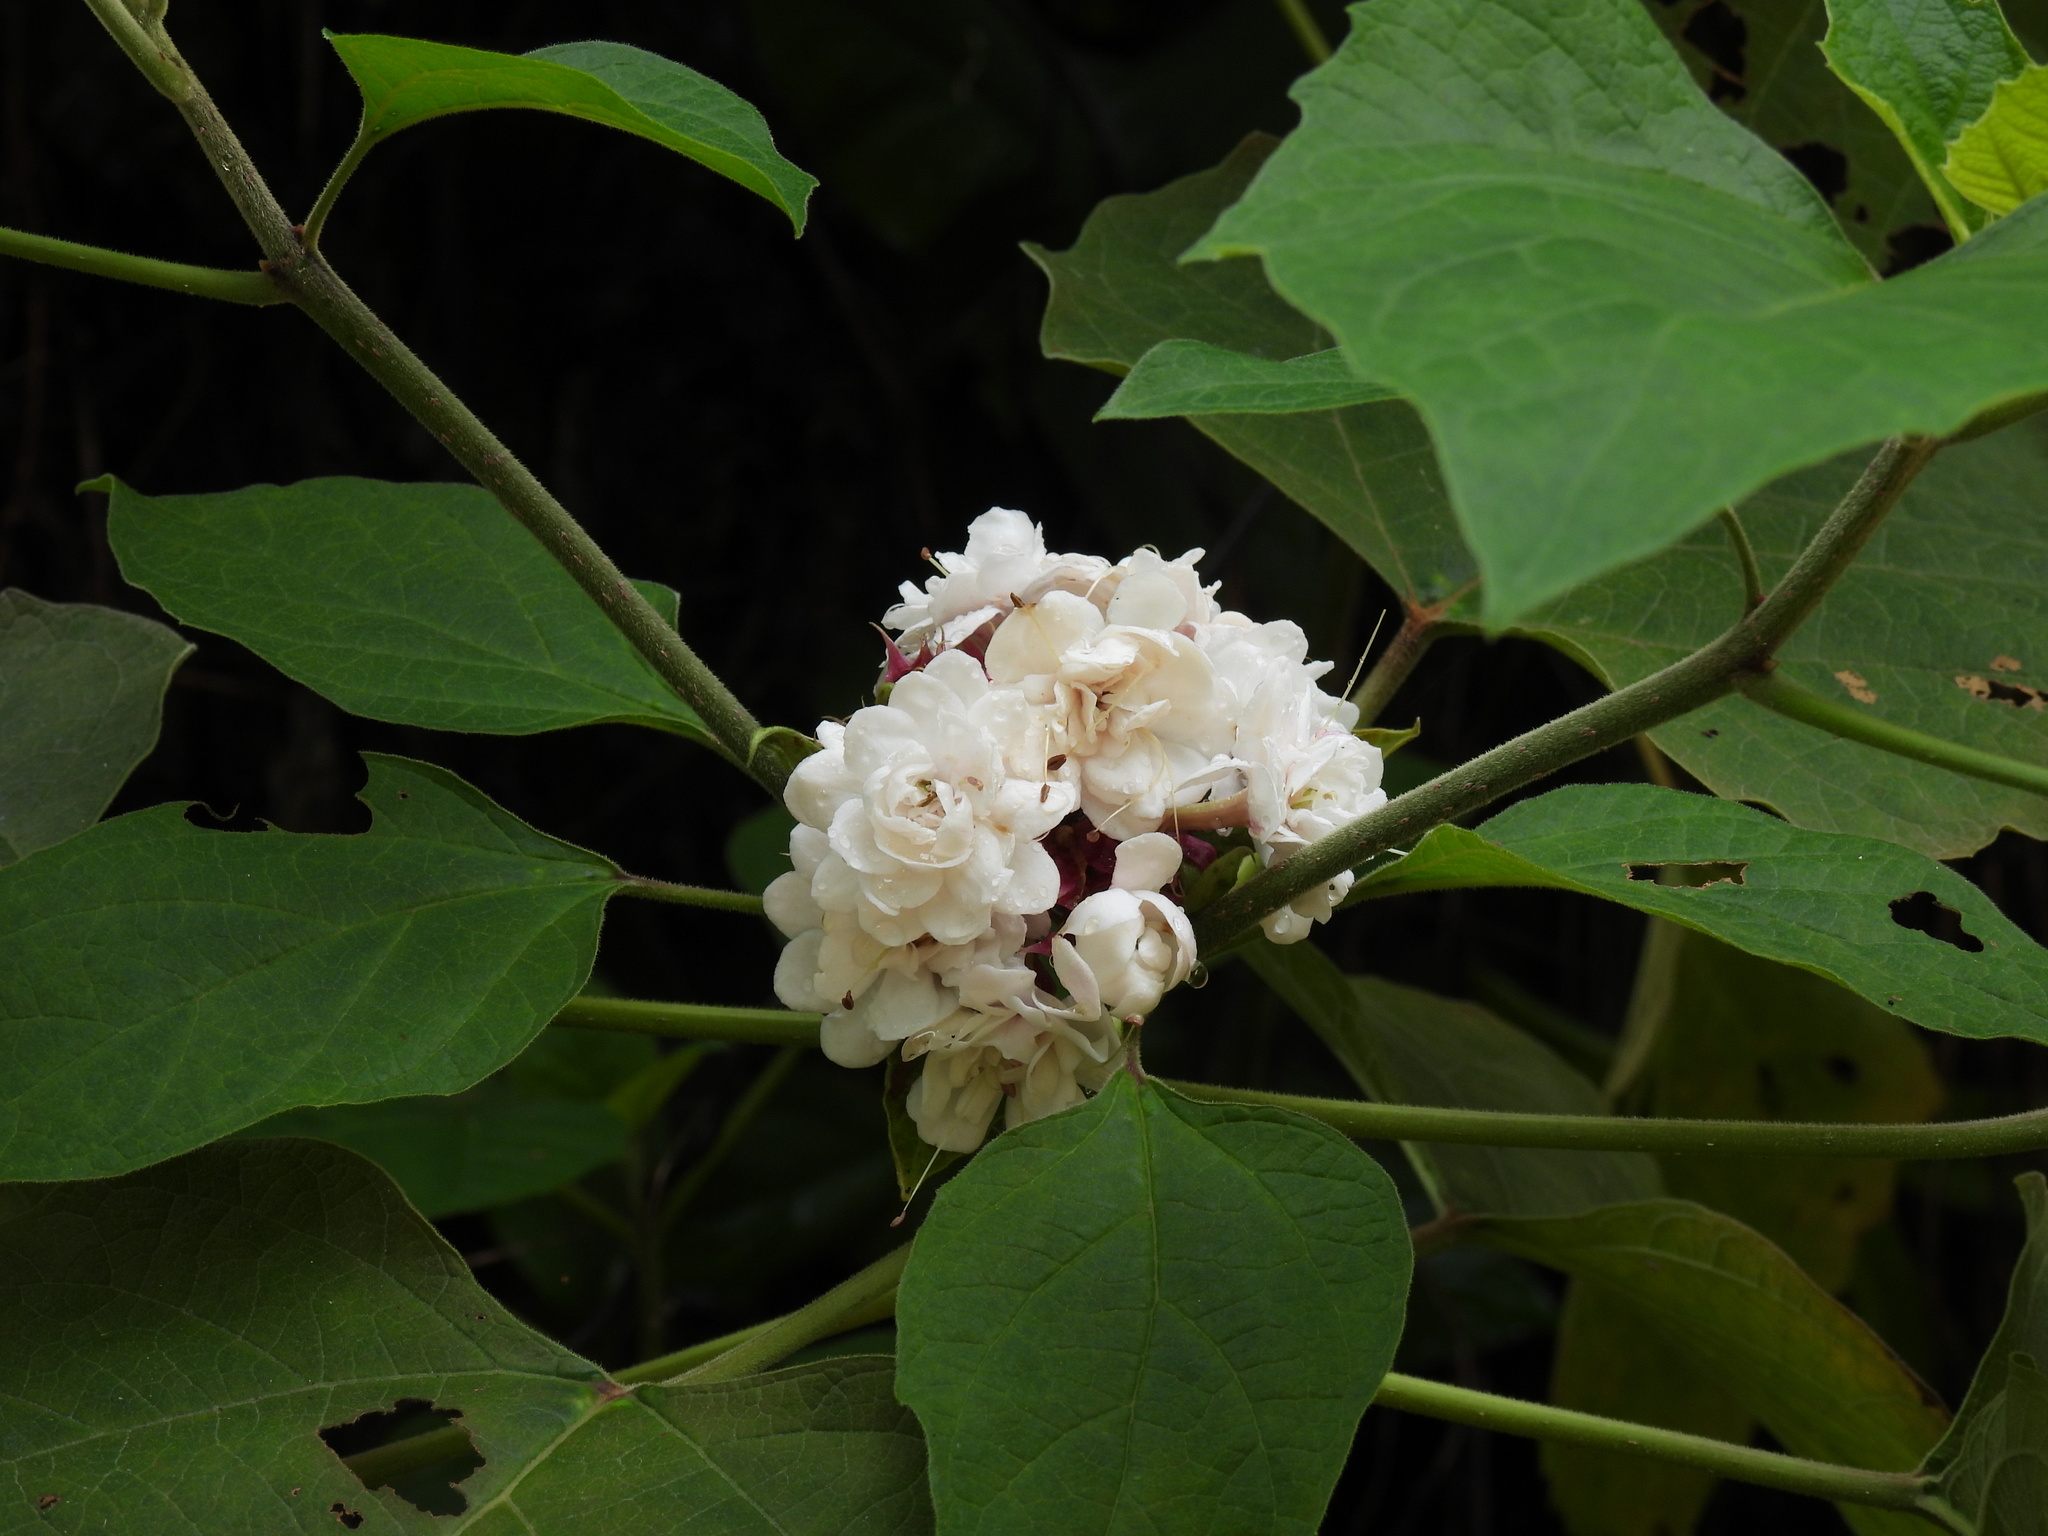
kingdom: Plantae
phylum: Tracheophyta
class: Magnoliopsida
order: Lamiales
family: Lamiaceae
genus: Clerodendrum
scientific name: Clerodendrum chinense
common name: Stickbush
